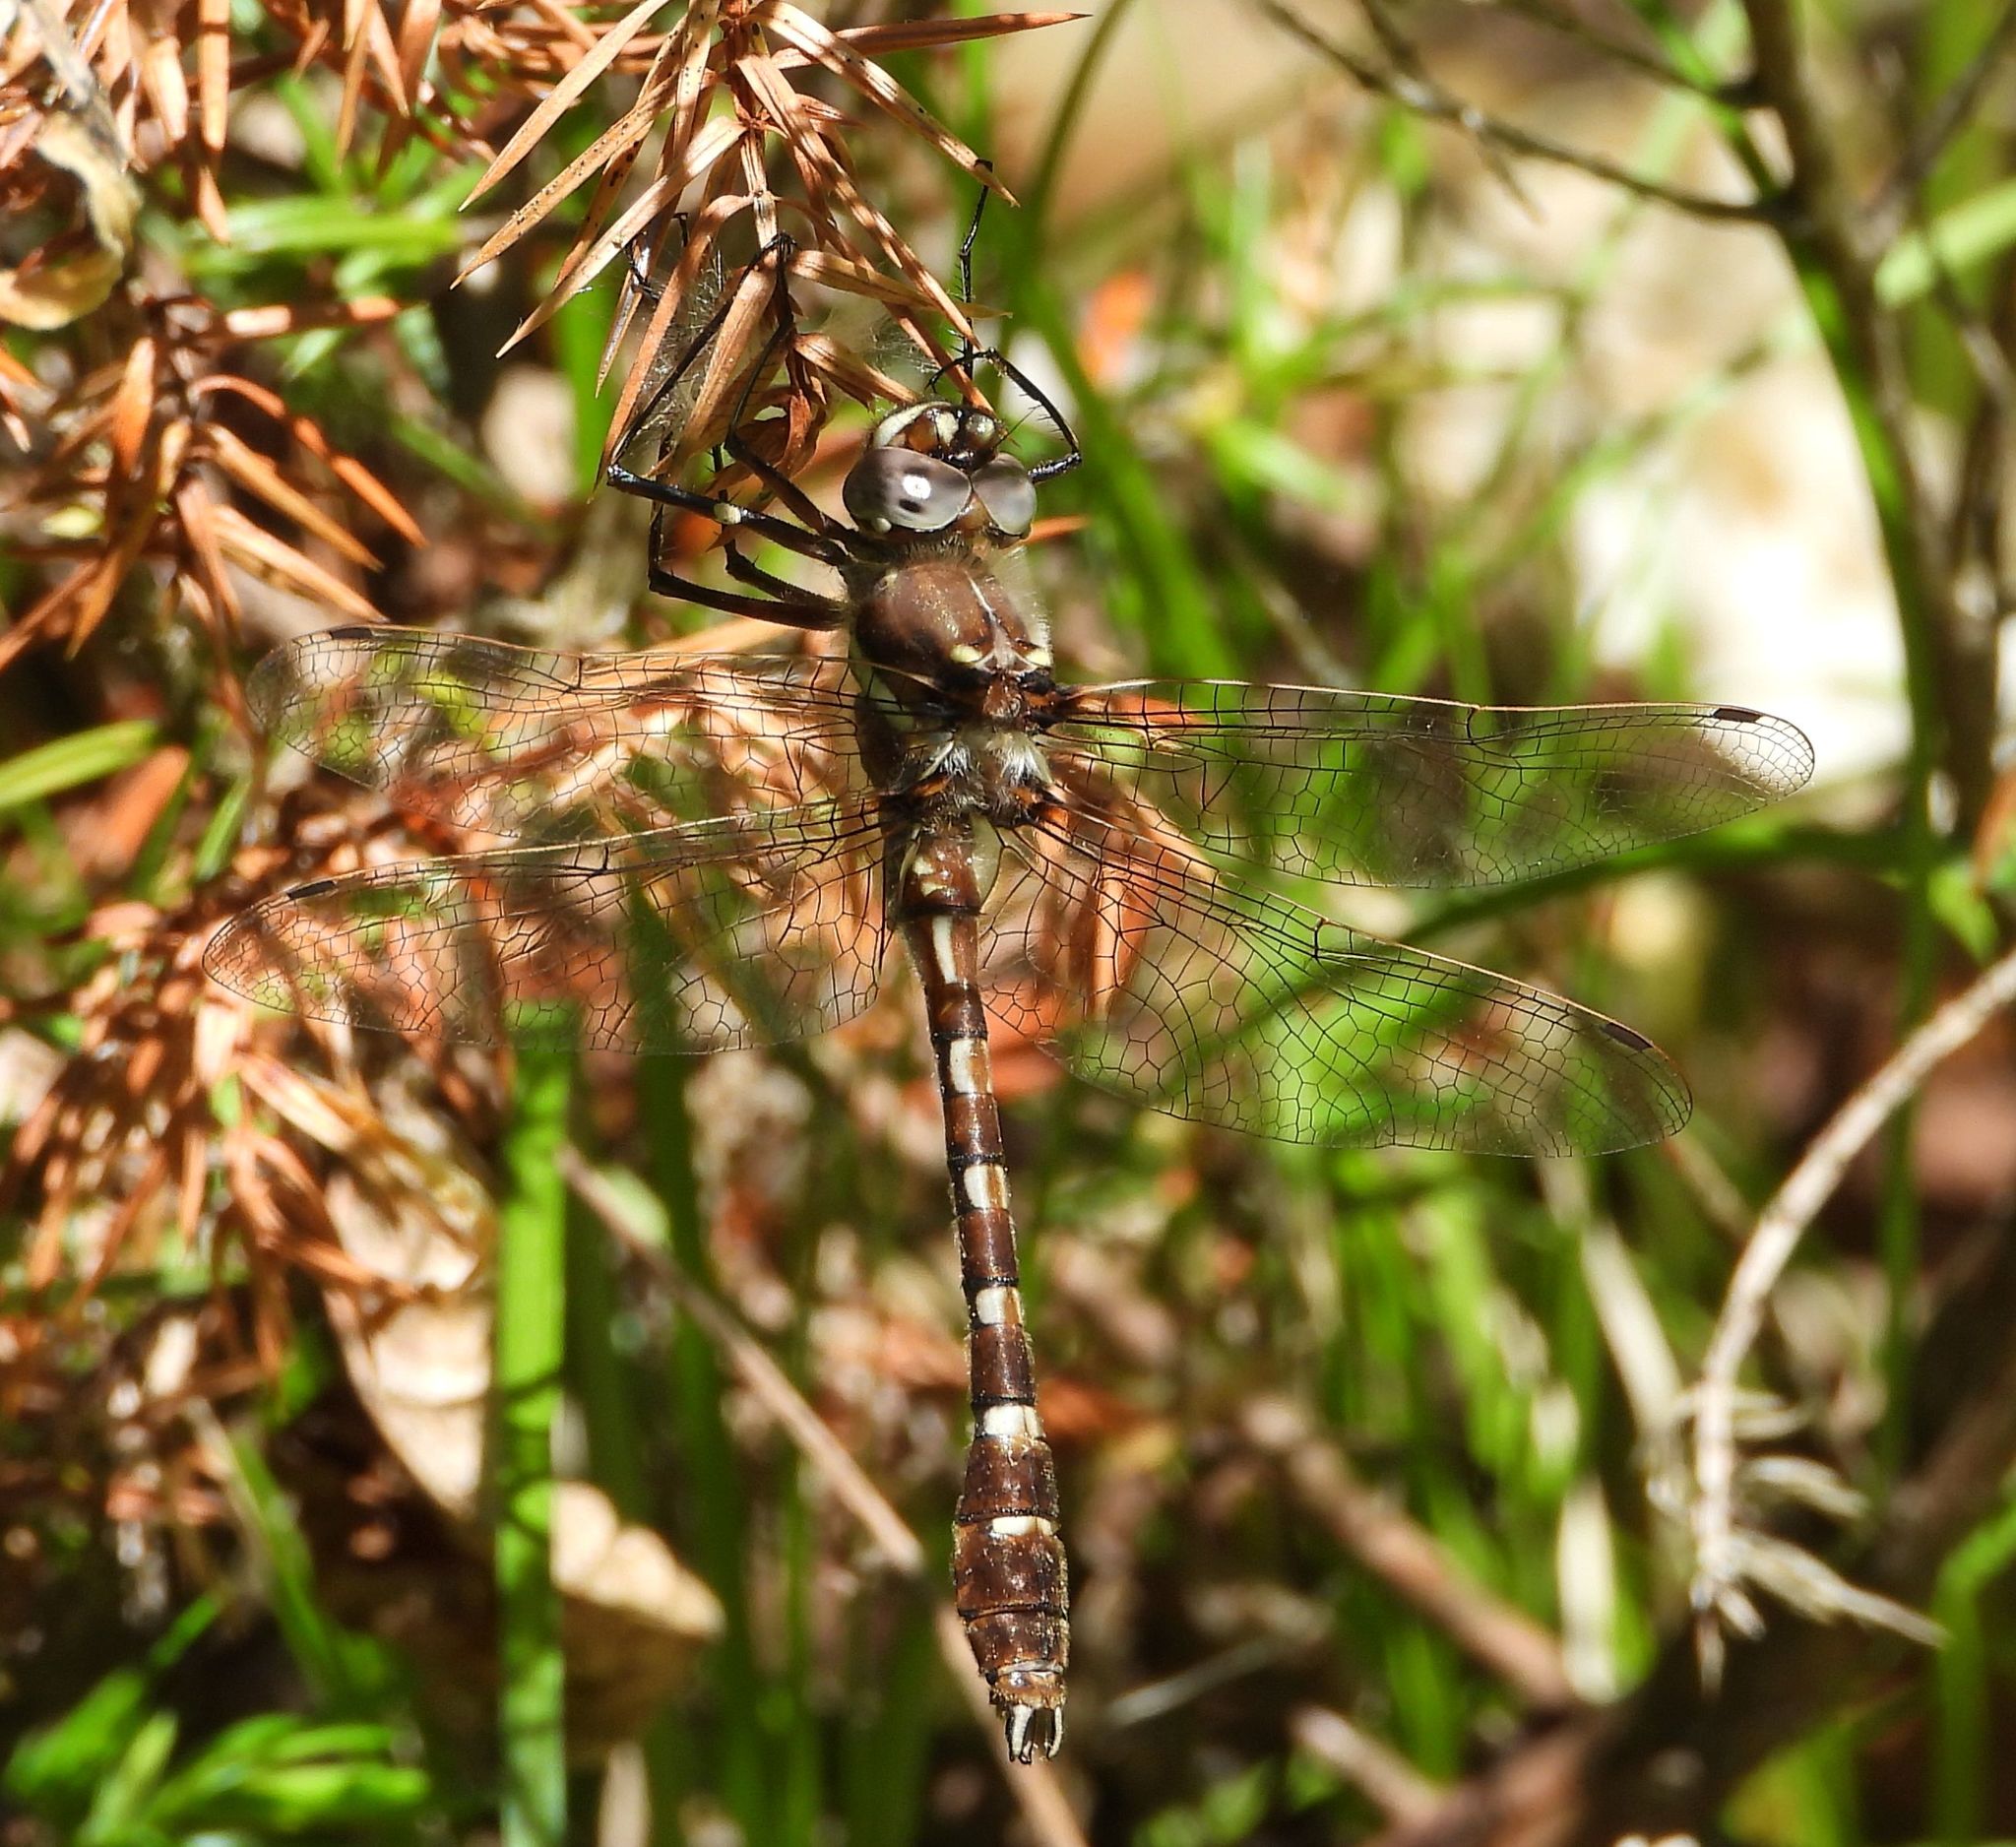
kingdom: Animalia
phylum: Arthropoda
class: Insecta
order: Odonata
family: Macromiidae
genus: Didymops
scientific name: Didymops transversa
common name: Stream cruiser
